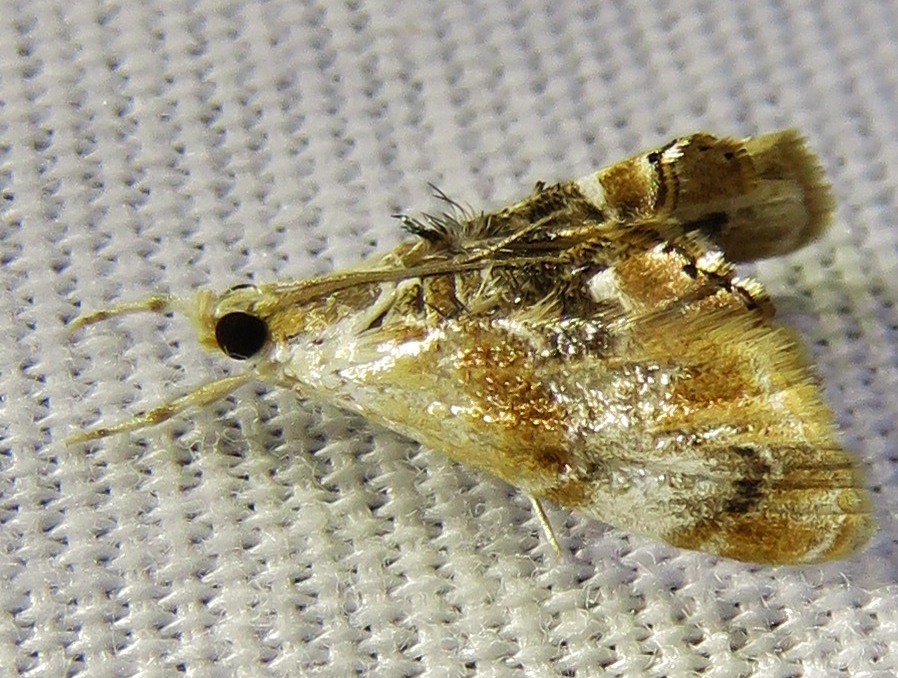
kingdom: Animalia
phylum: Arthropoda
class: Insecta
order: Lepidoptera
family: Crambidae
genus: Dicymolomia
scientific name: Dicymolomia julianalis
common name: Julia's dicymolomia moth
